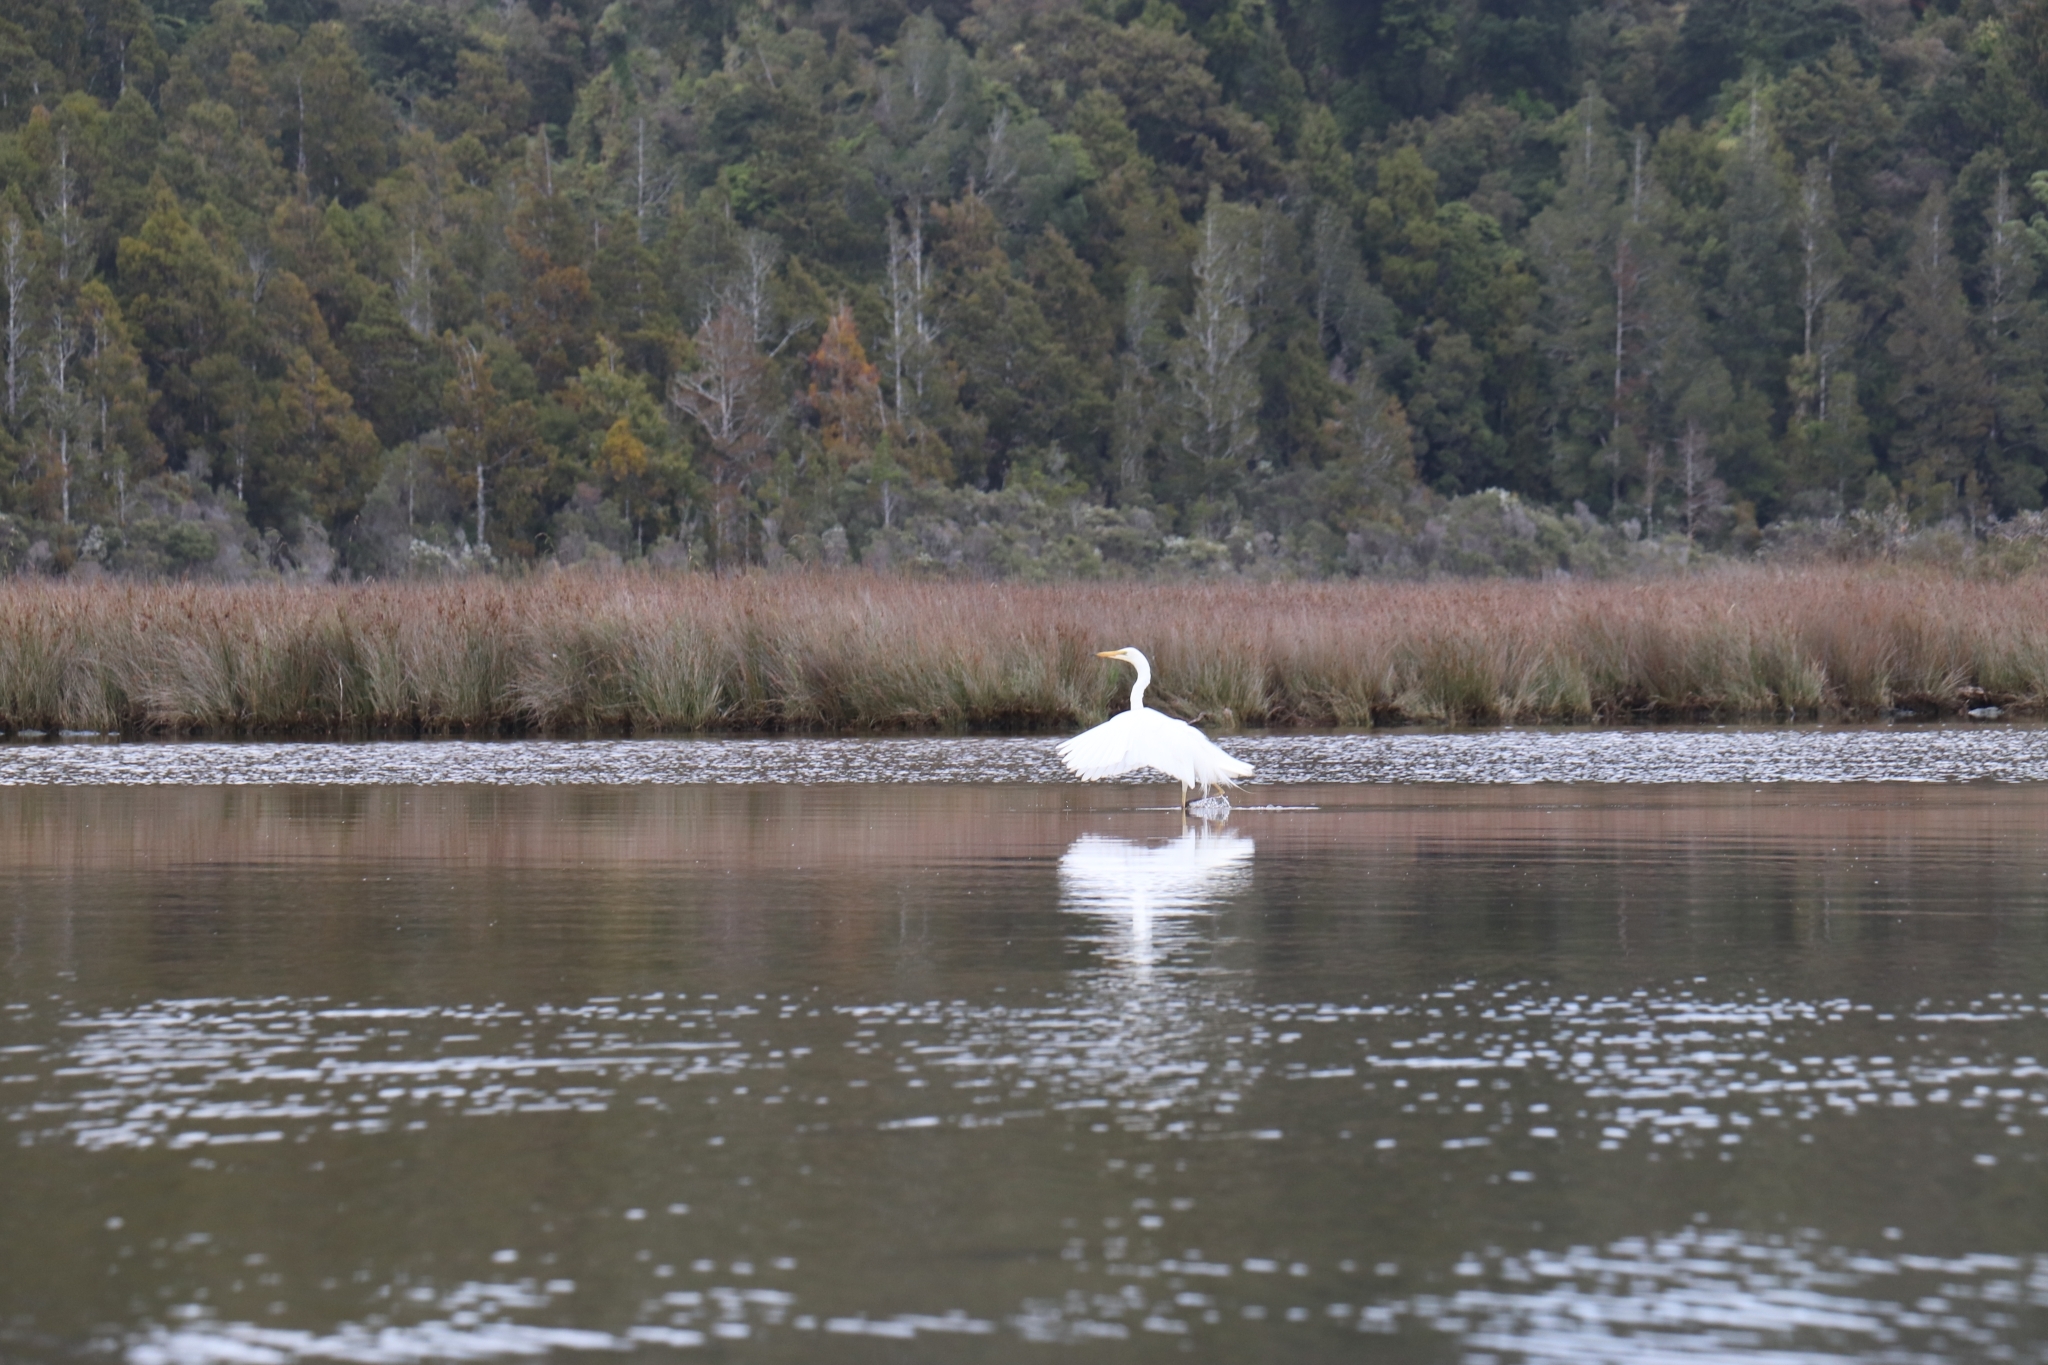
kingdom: Animalia
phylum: Chordata
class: Aves
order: Pelecaniformes
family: Ardeidae
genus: Ardea
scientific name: Ardea modesta
